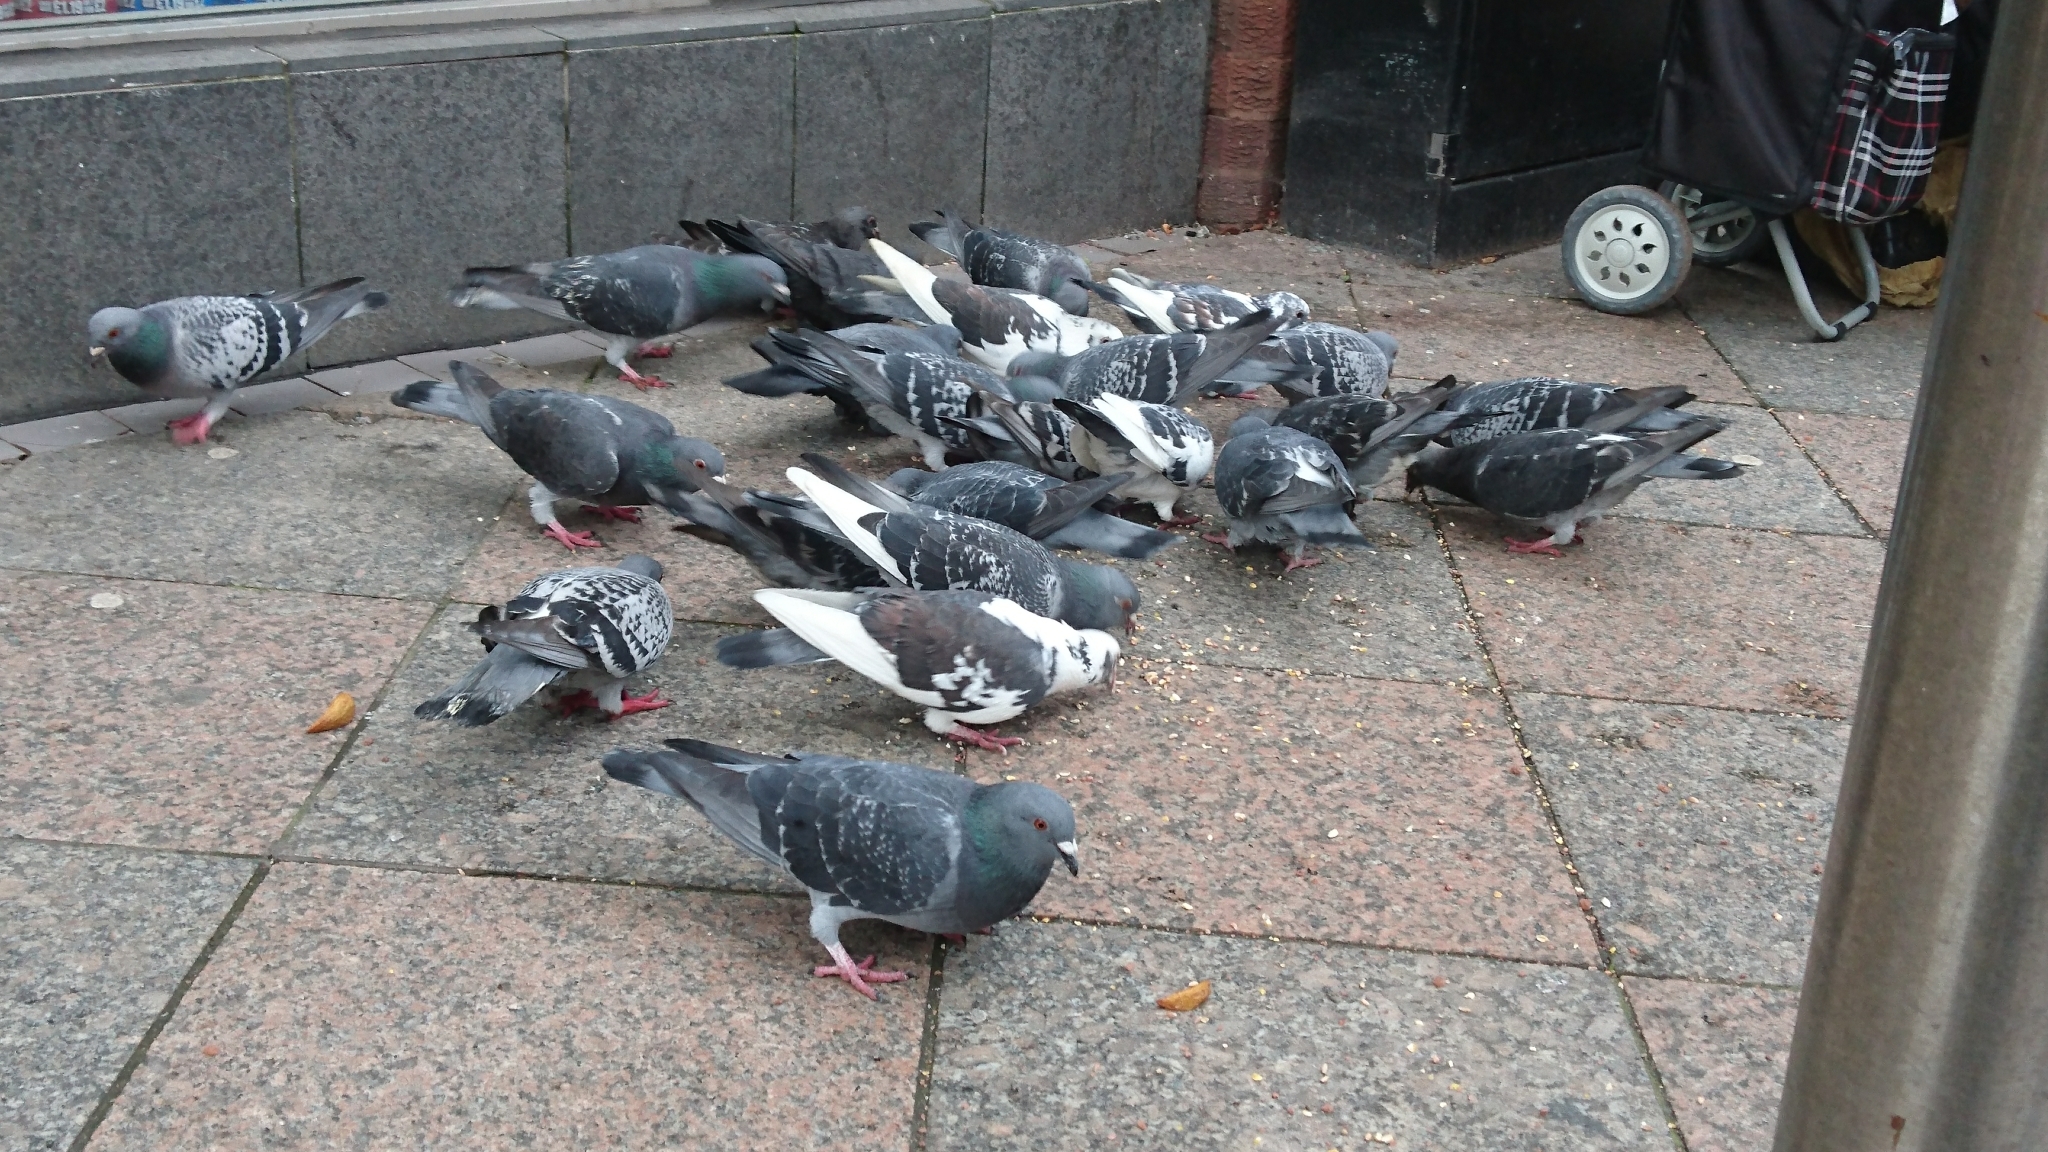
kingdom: Animalia
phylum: Chordata
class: Aves
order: Columbiformes
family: Columbidae
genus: Columba
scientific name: Columba livia
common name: Rock pigeon
